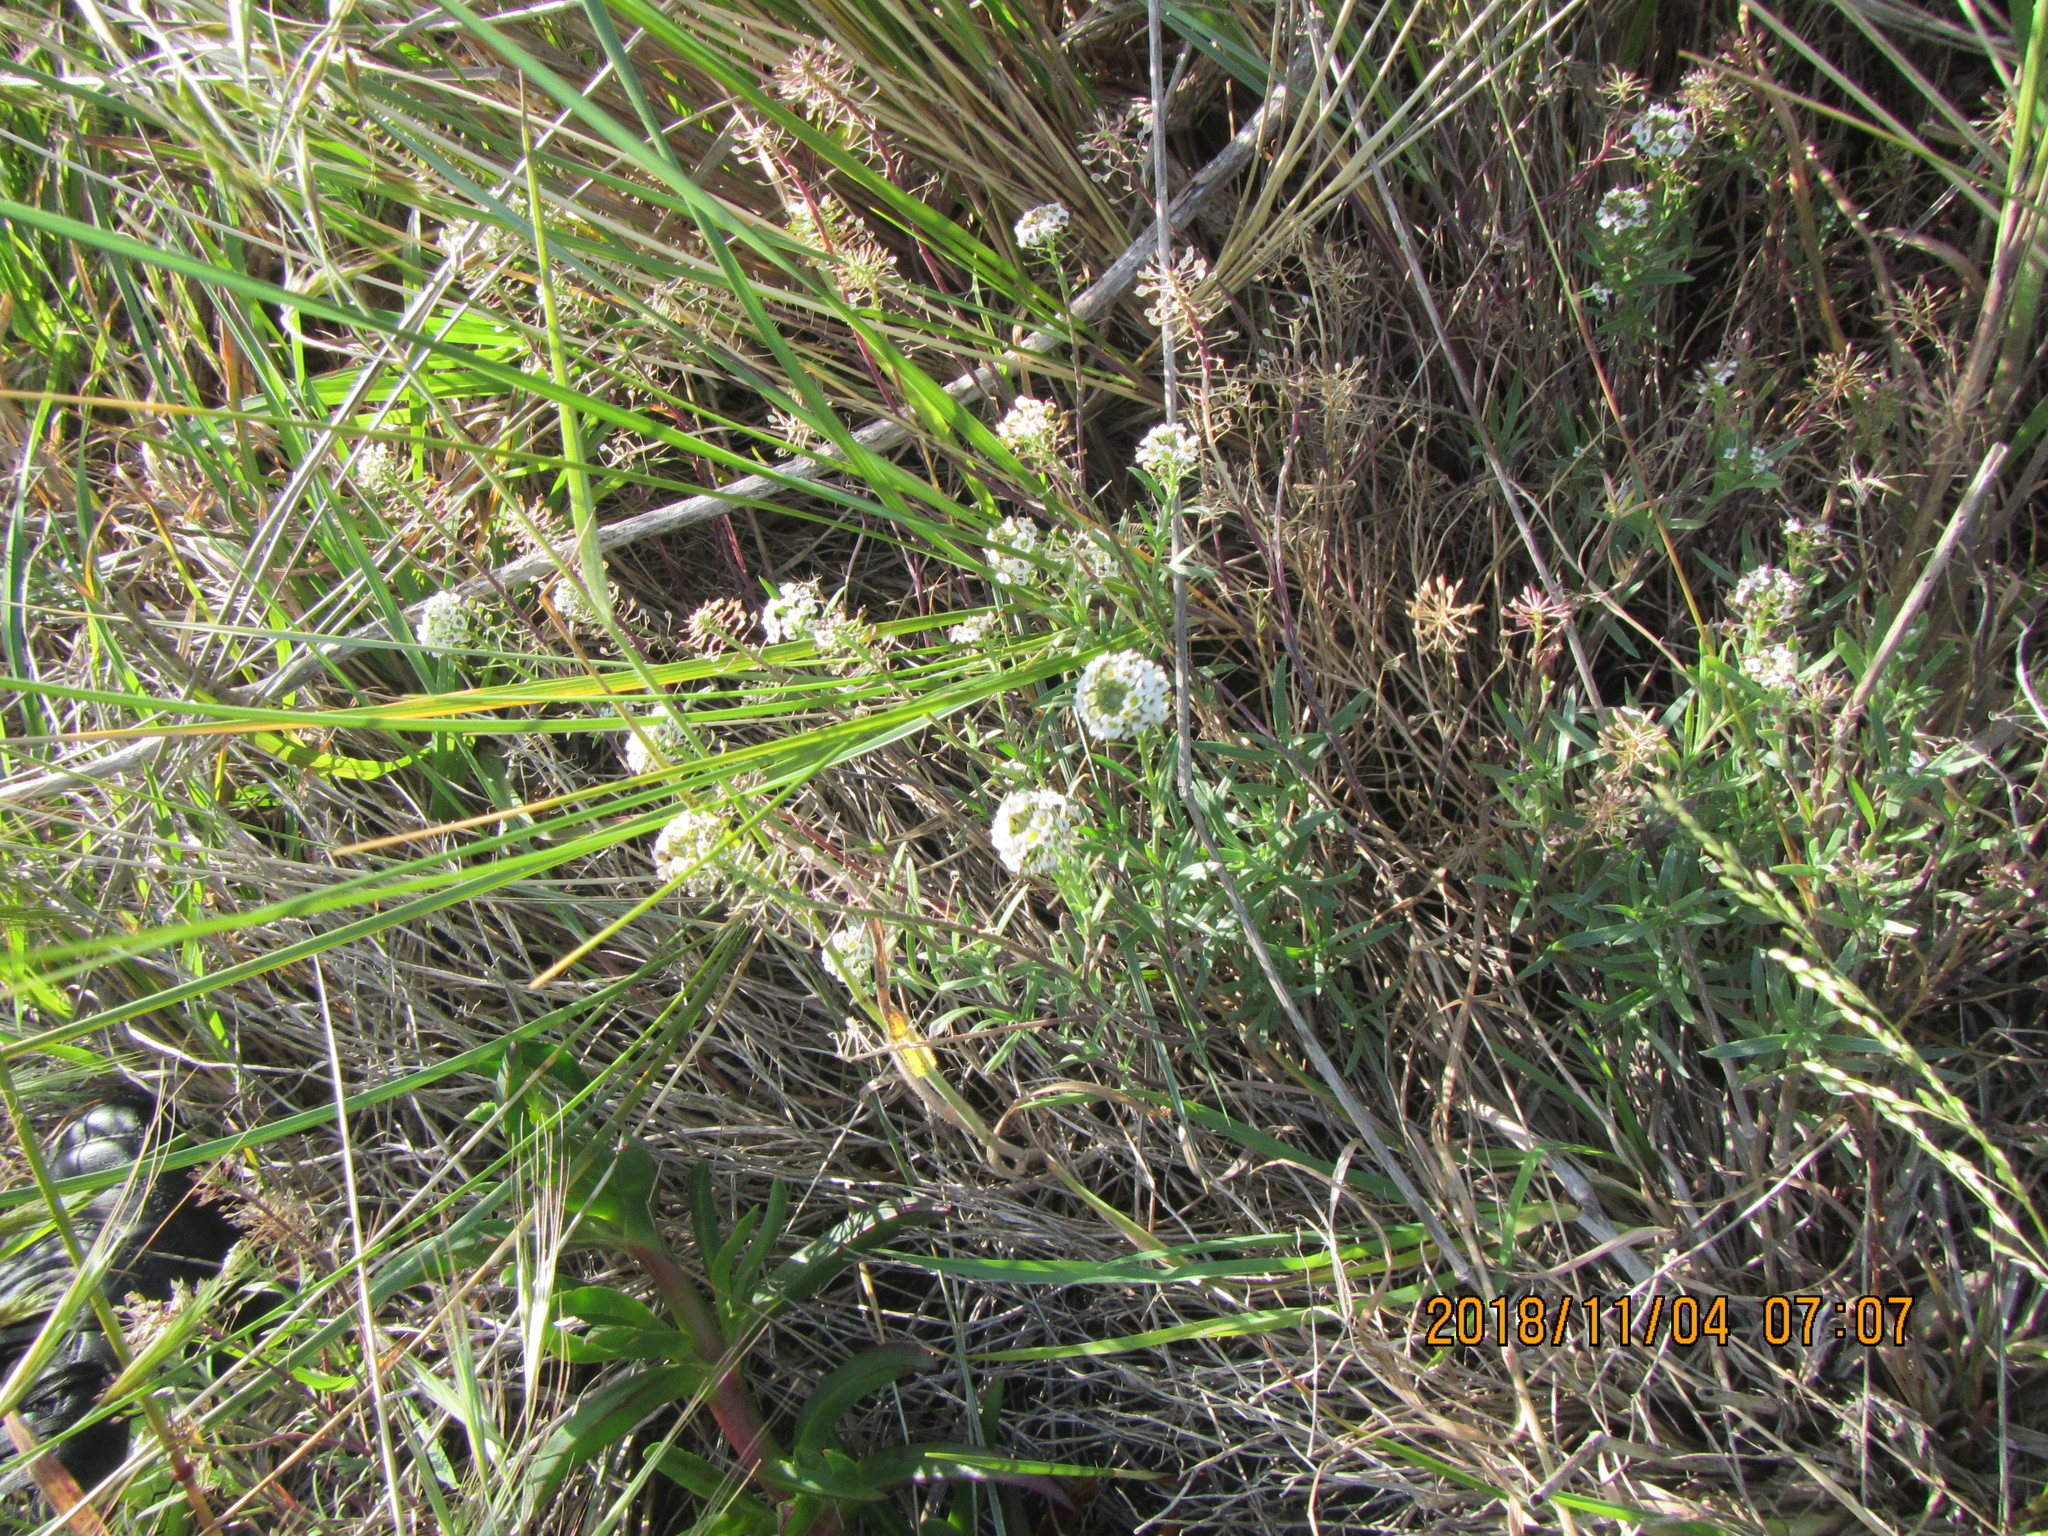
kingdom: Plantae
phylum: Tracheophyta
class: Magnoliopsida
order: Brassicales
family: Brassicaceae
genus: Lobularia
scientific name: Lobularia maritima
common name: Sweet alison
